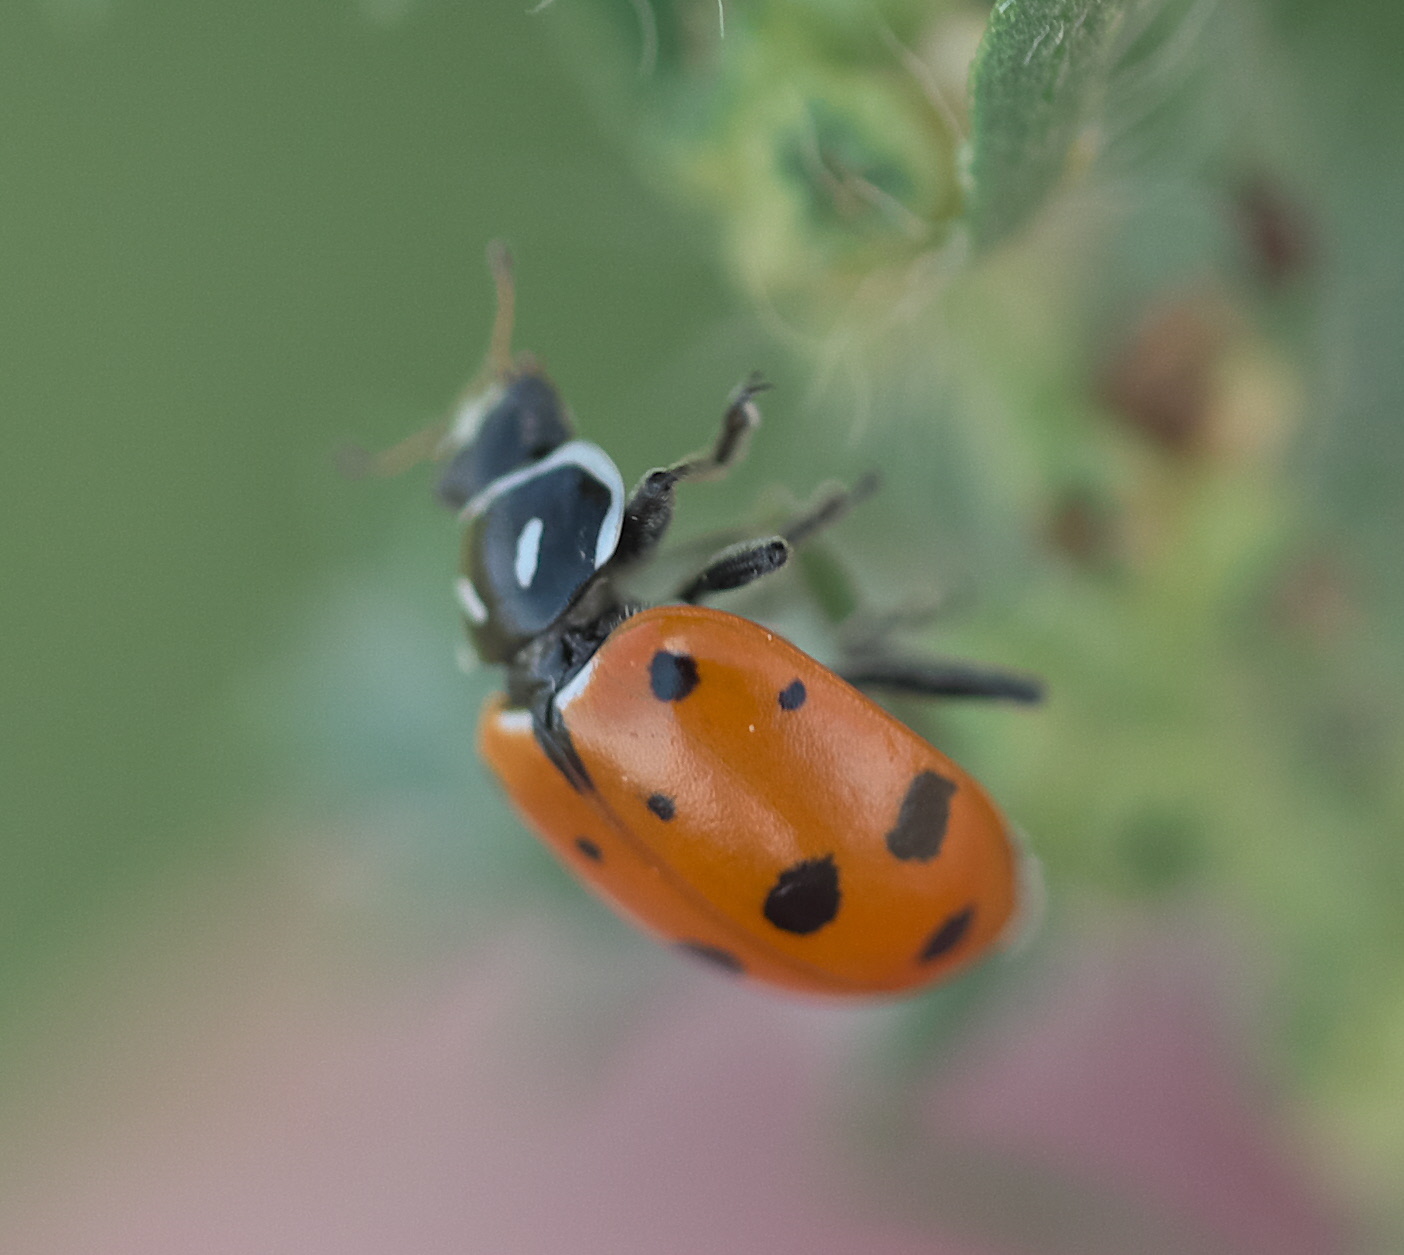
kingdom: Animalia
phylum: Arthropoda
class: Insecta
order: Coleoptera
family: Coccinellidae
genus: Hippodamia
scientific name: Hippodamia convergens
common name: Convergent lady beetle
